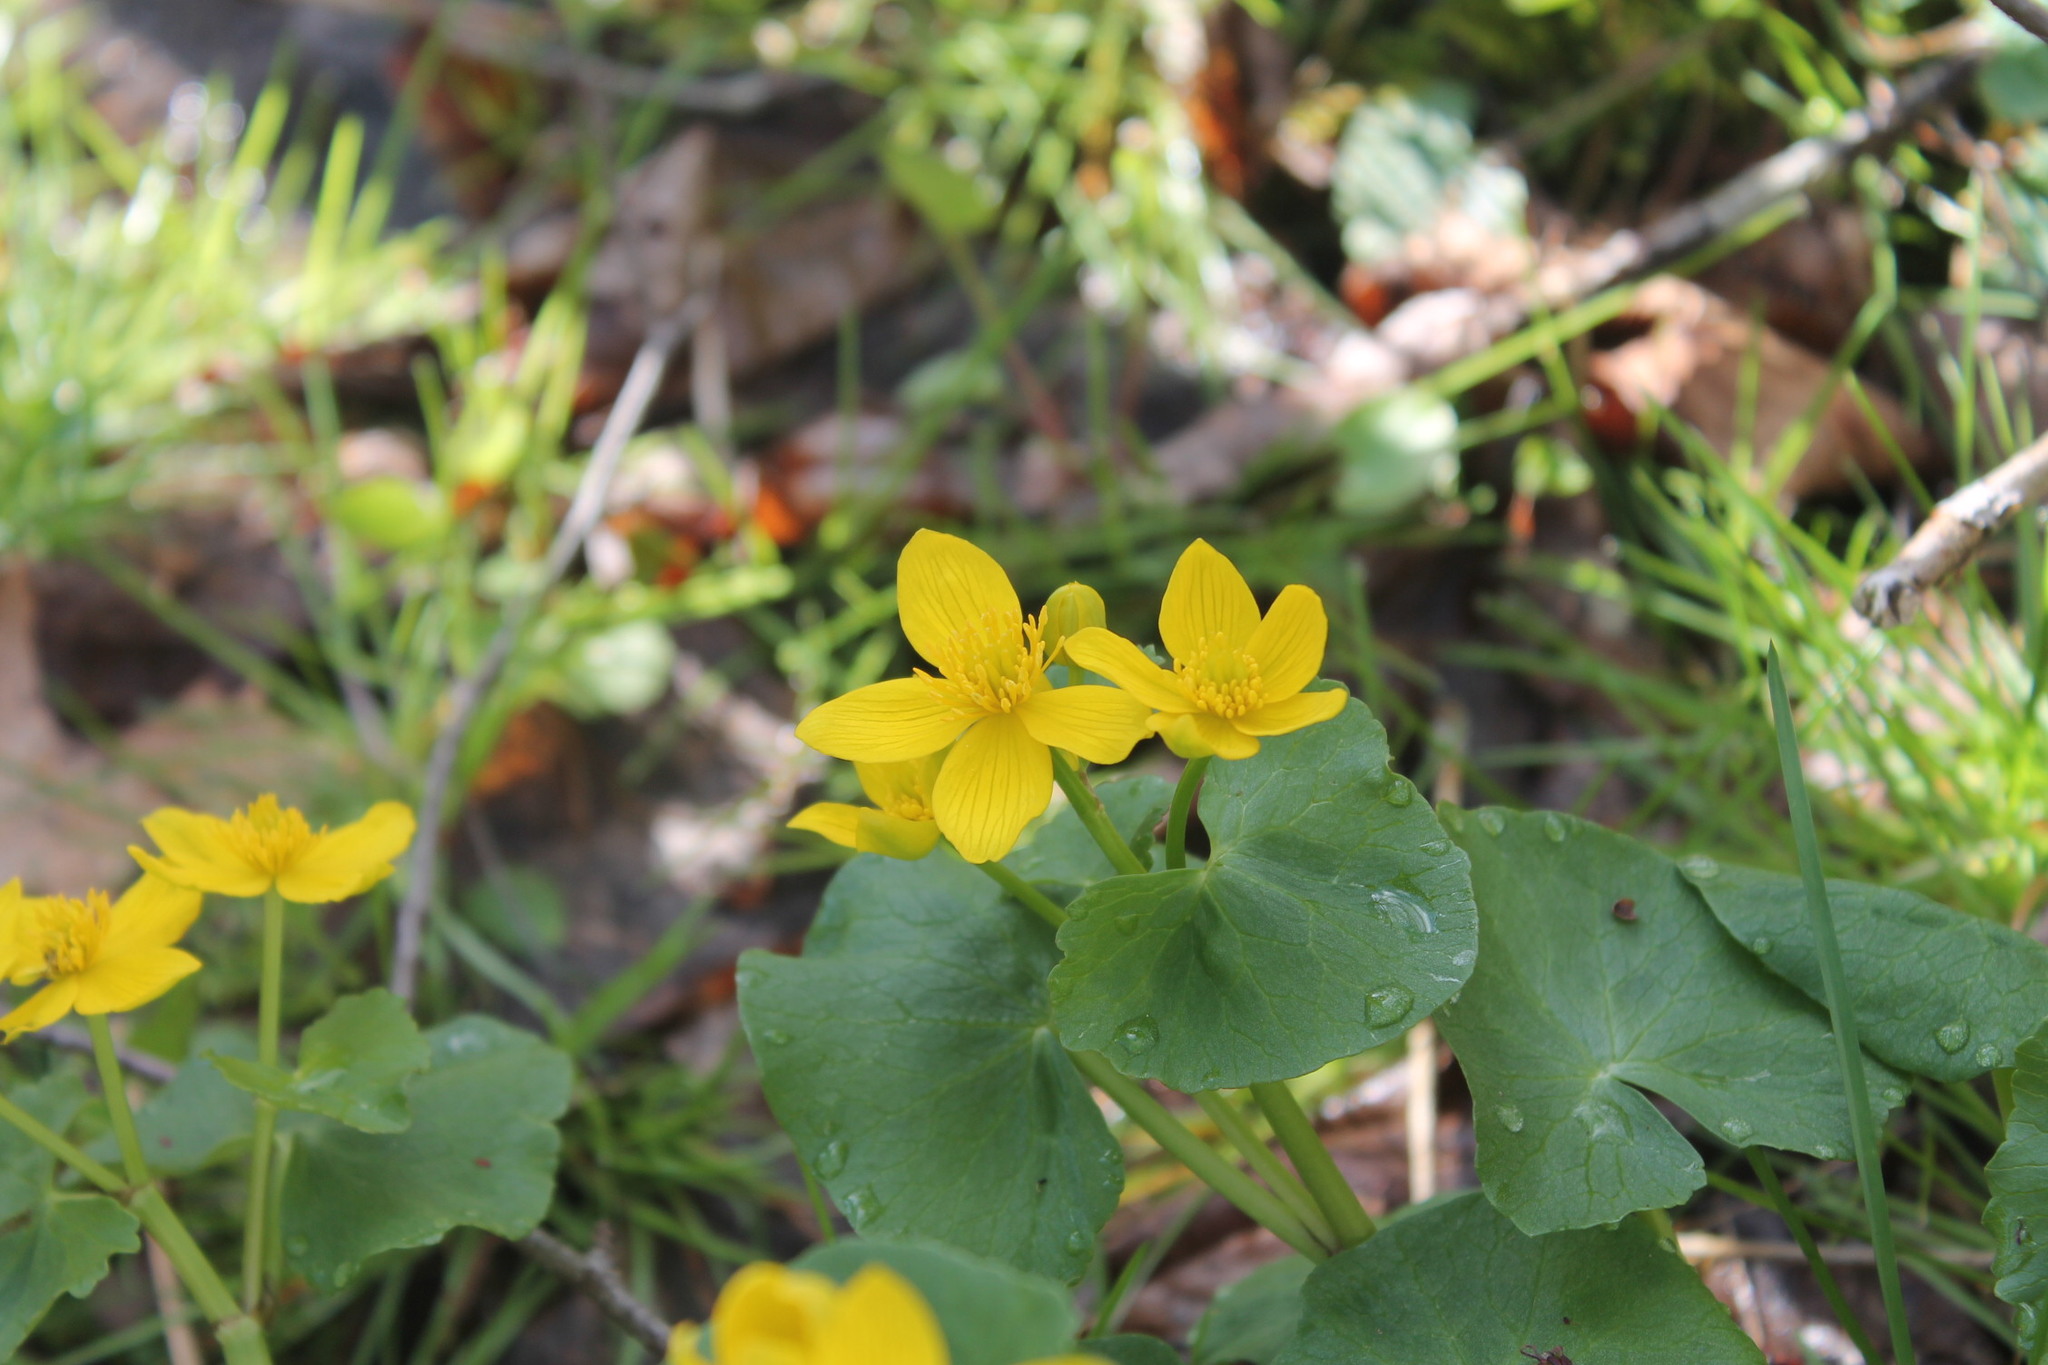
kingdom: Plantae
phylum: Tracheophyta
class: Magnoliopsida
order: Ranunculales
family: Ranunculaceae
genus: Caltha
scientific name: Caltha palustris
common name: Marsh marigold
